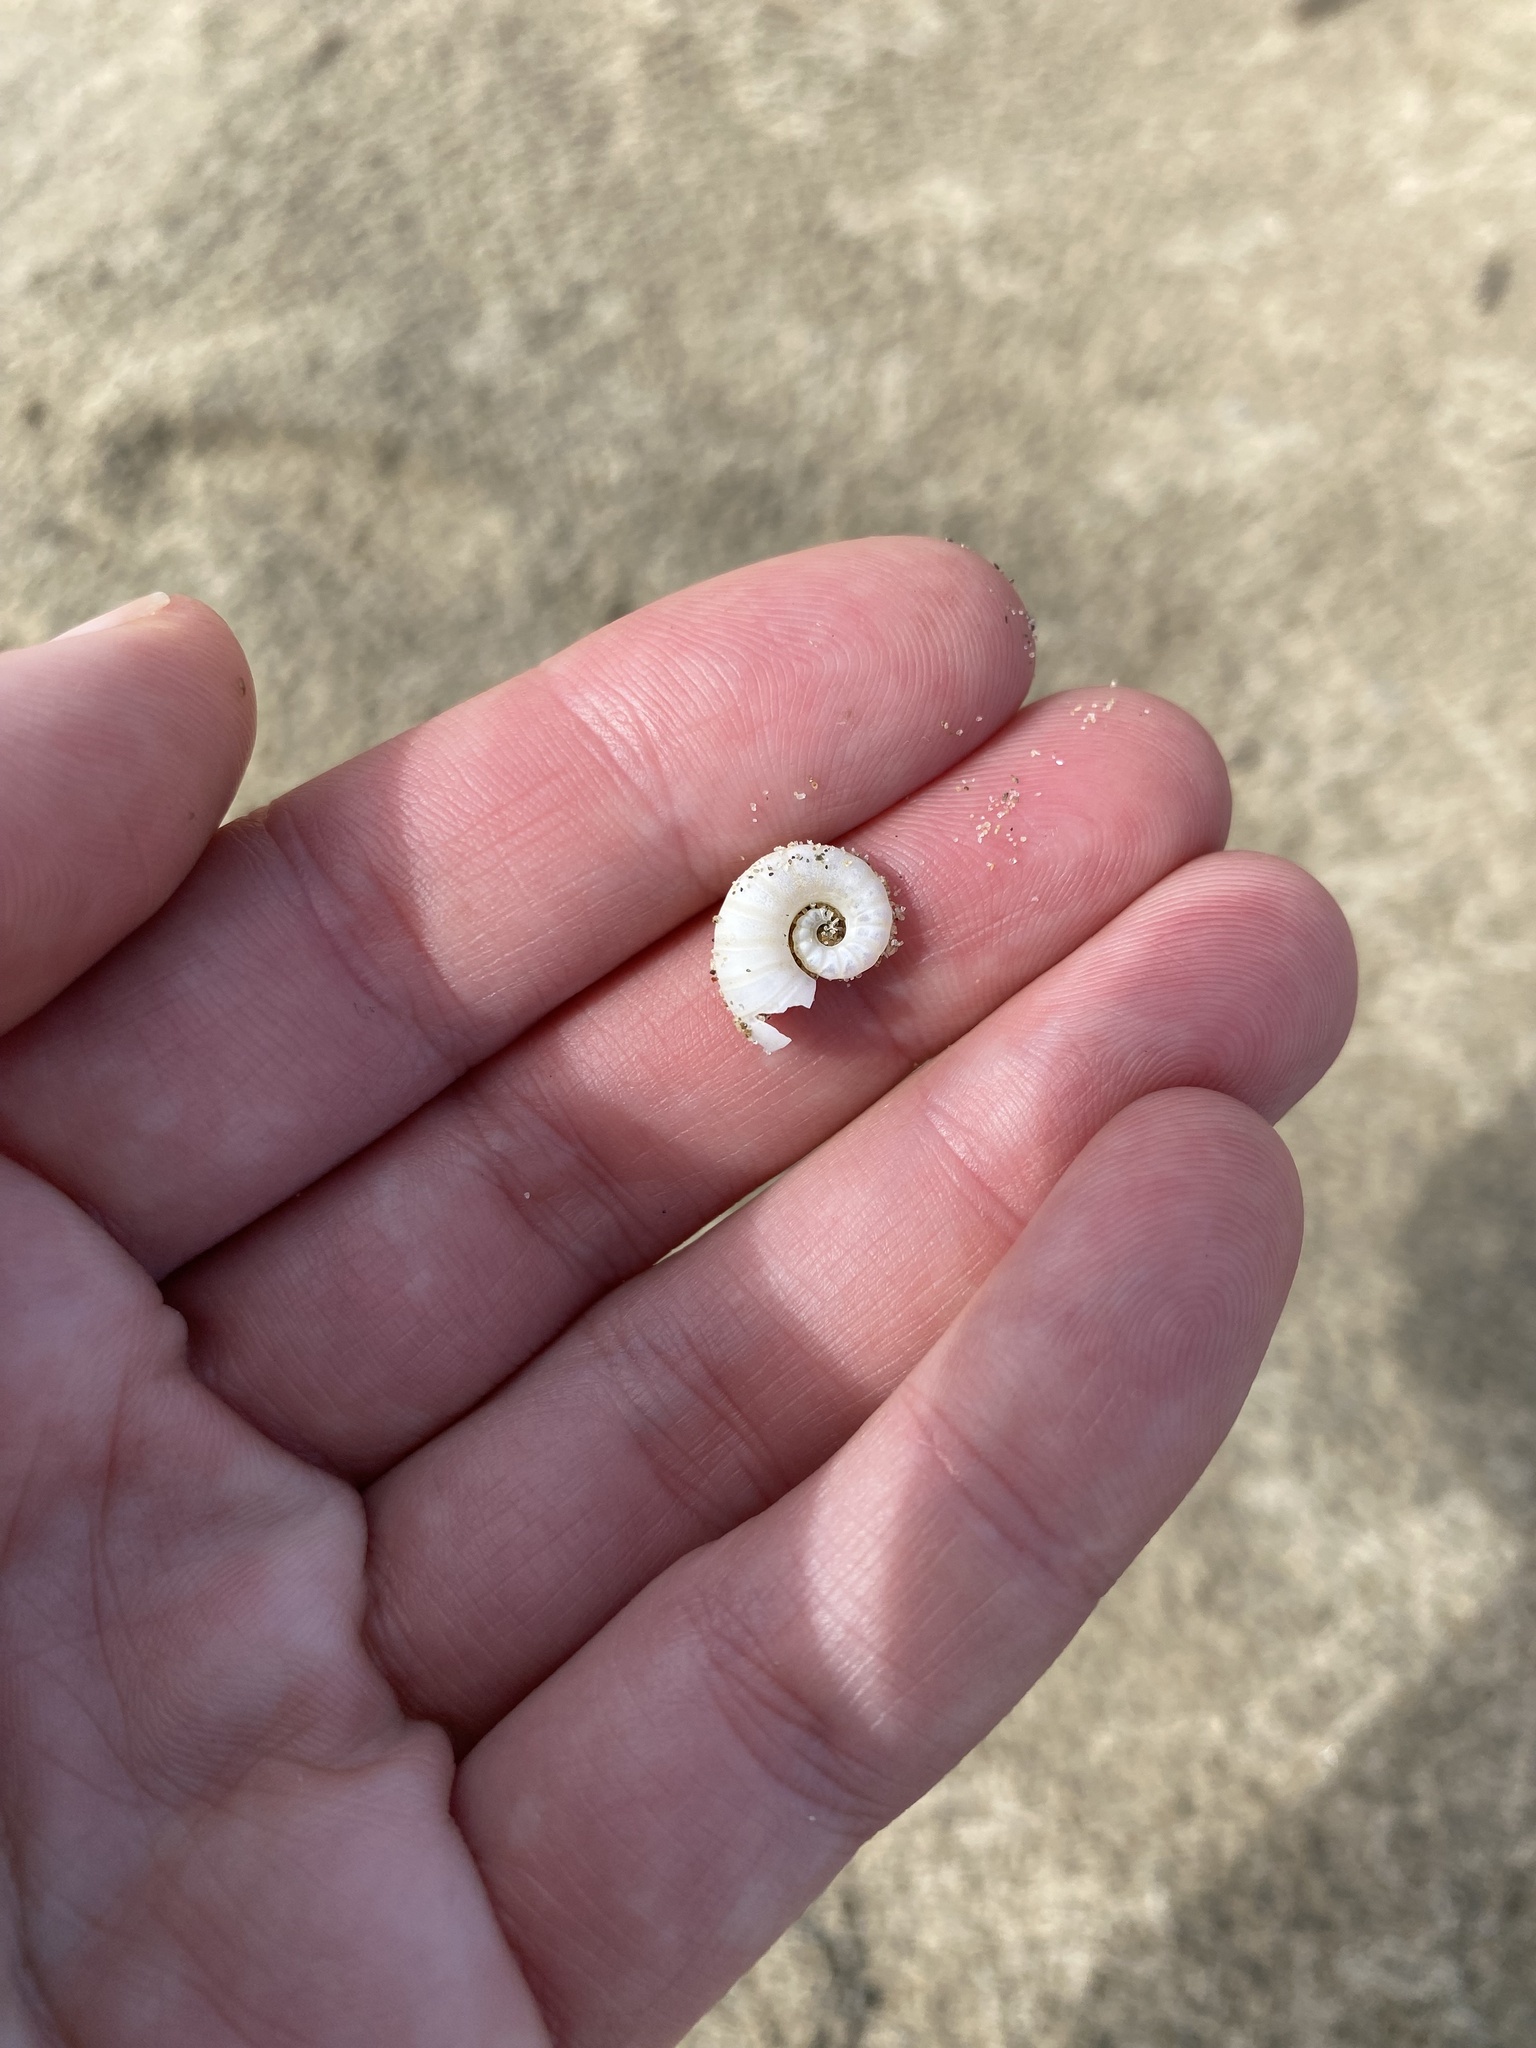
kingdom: Animalia
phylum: Mollusca
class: Cephalopoda
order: Spirulida
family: Spirulidae
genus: Spirula
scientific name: Spirula spirula
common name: Ram's horn squid
